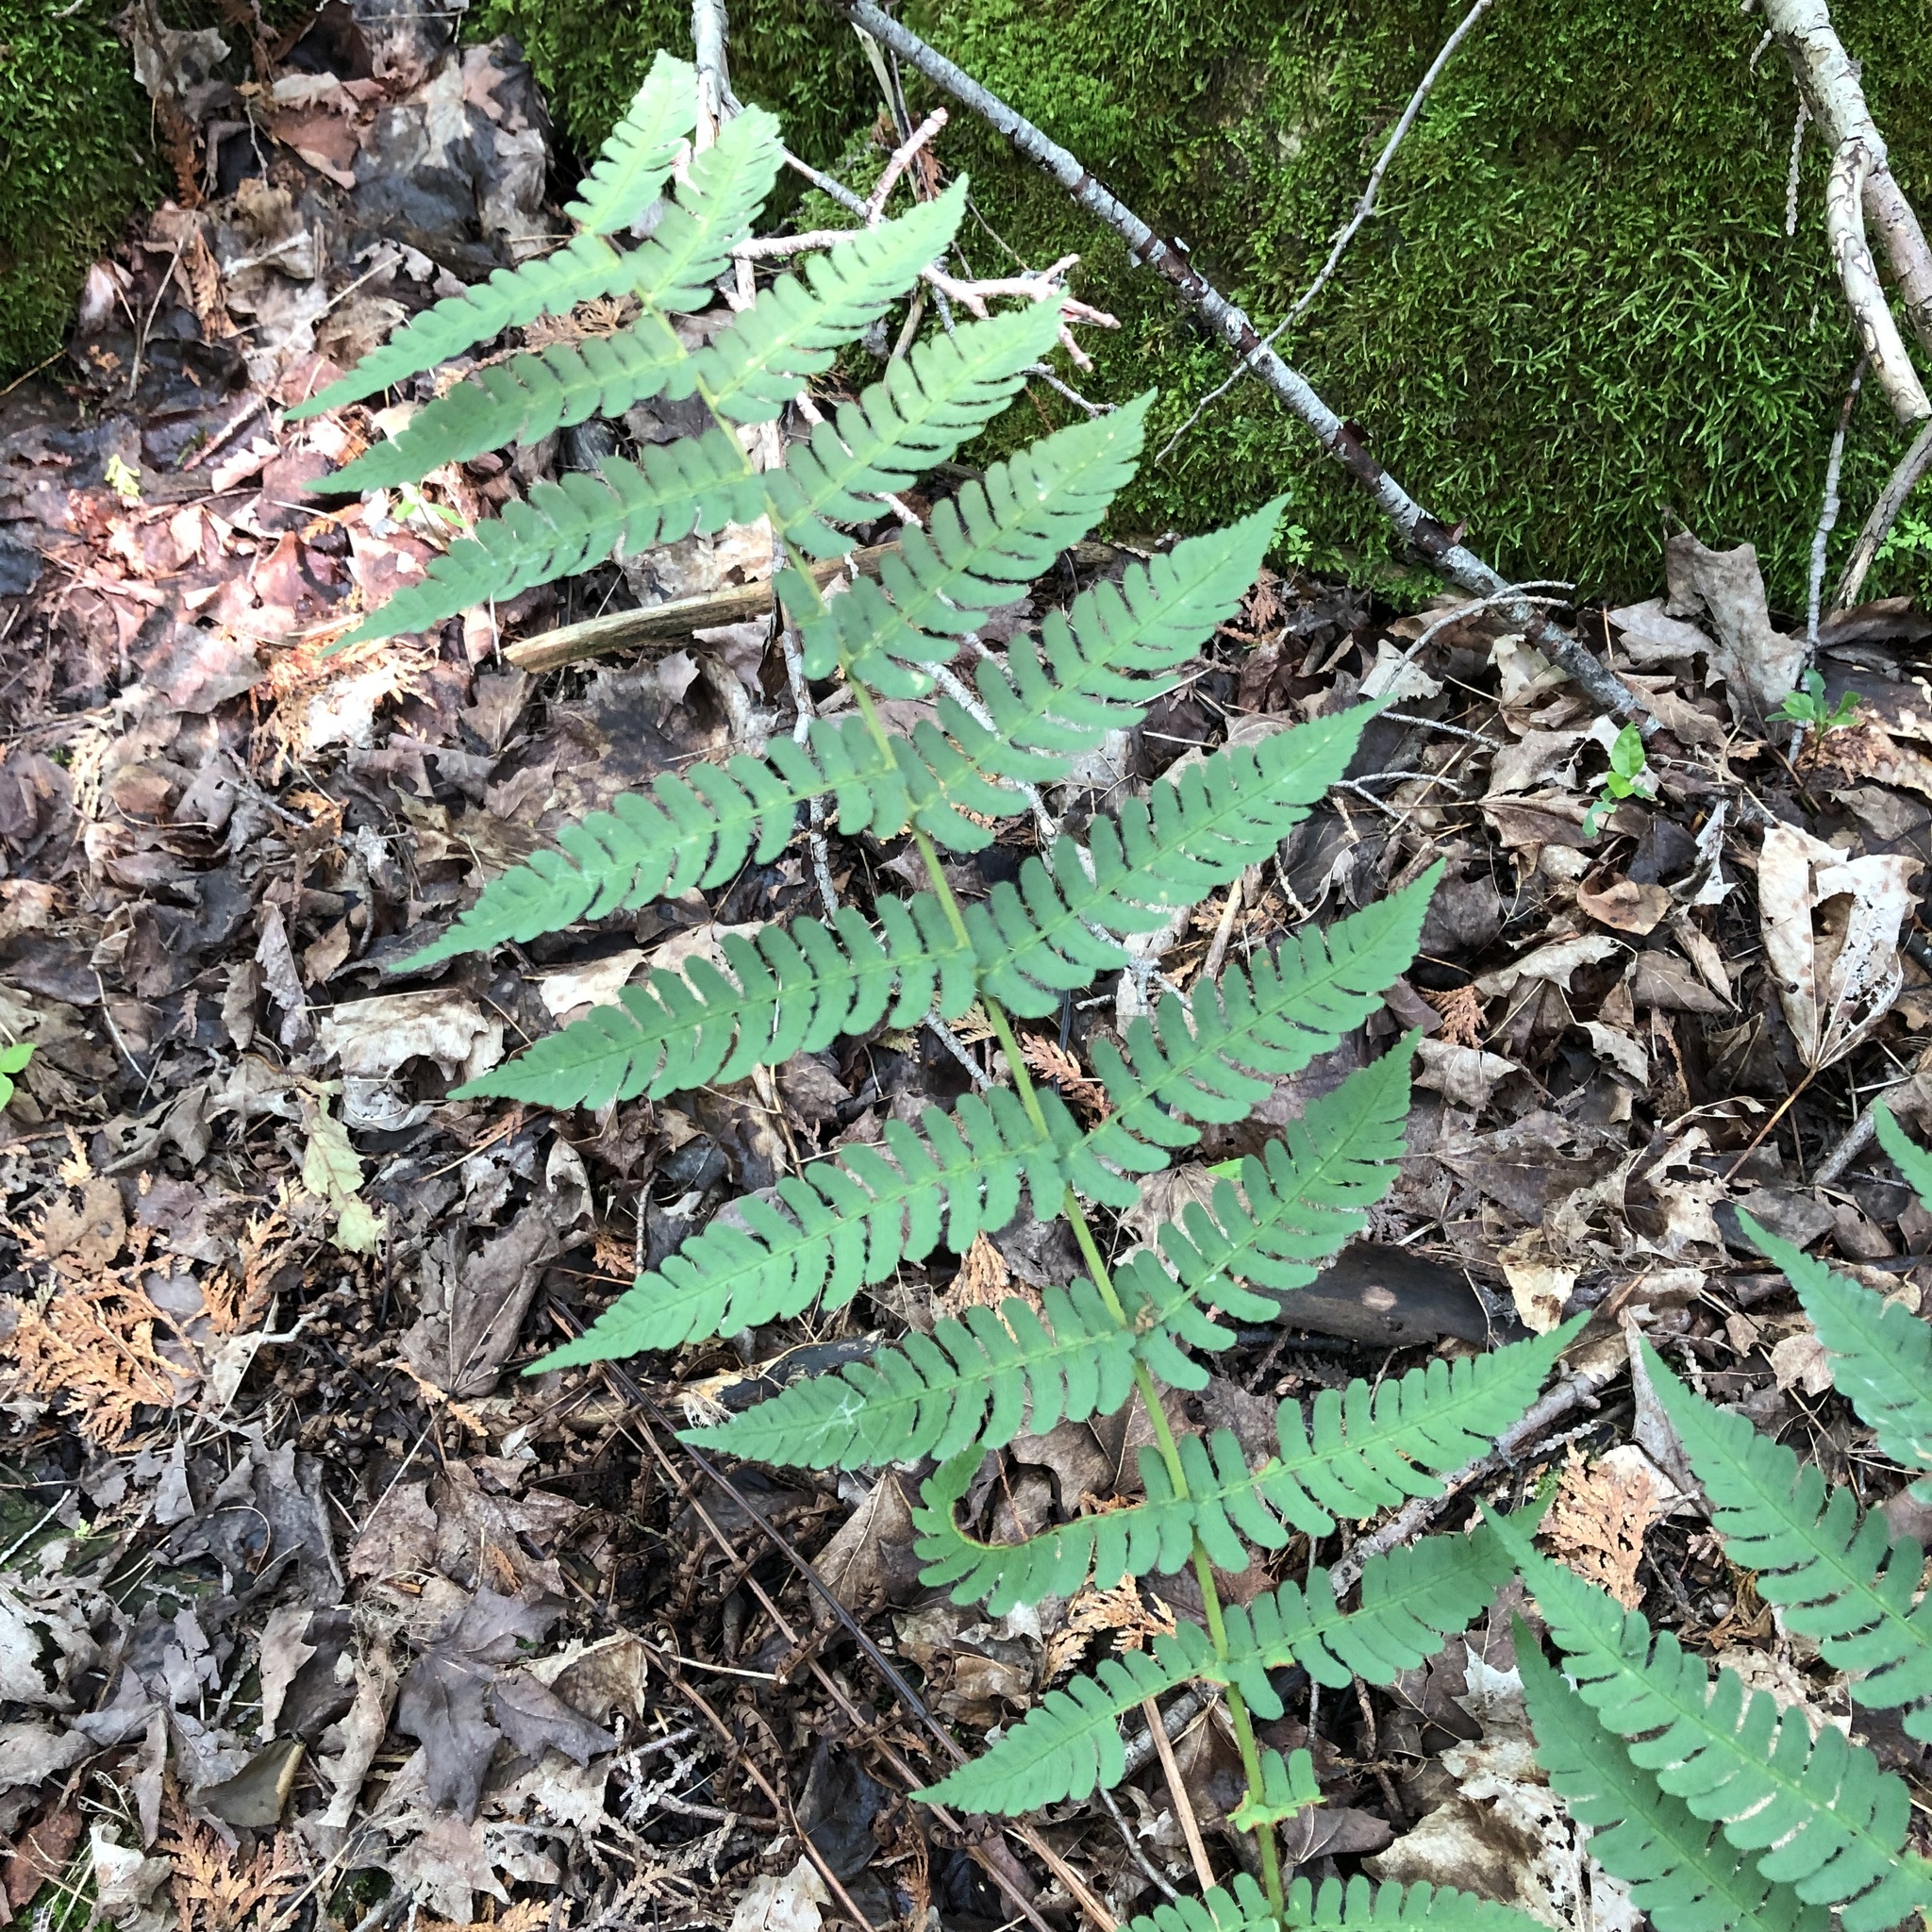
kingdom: Plantae
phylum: Tracheophyta
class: Polypodiopsida
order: Polypodiales
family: Dryopteridaceae
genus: Dryopteris
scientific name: Dryopteris marginalis
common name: Marginal wood fern
